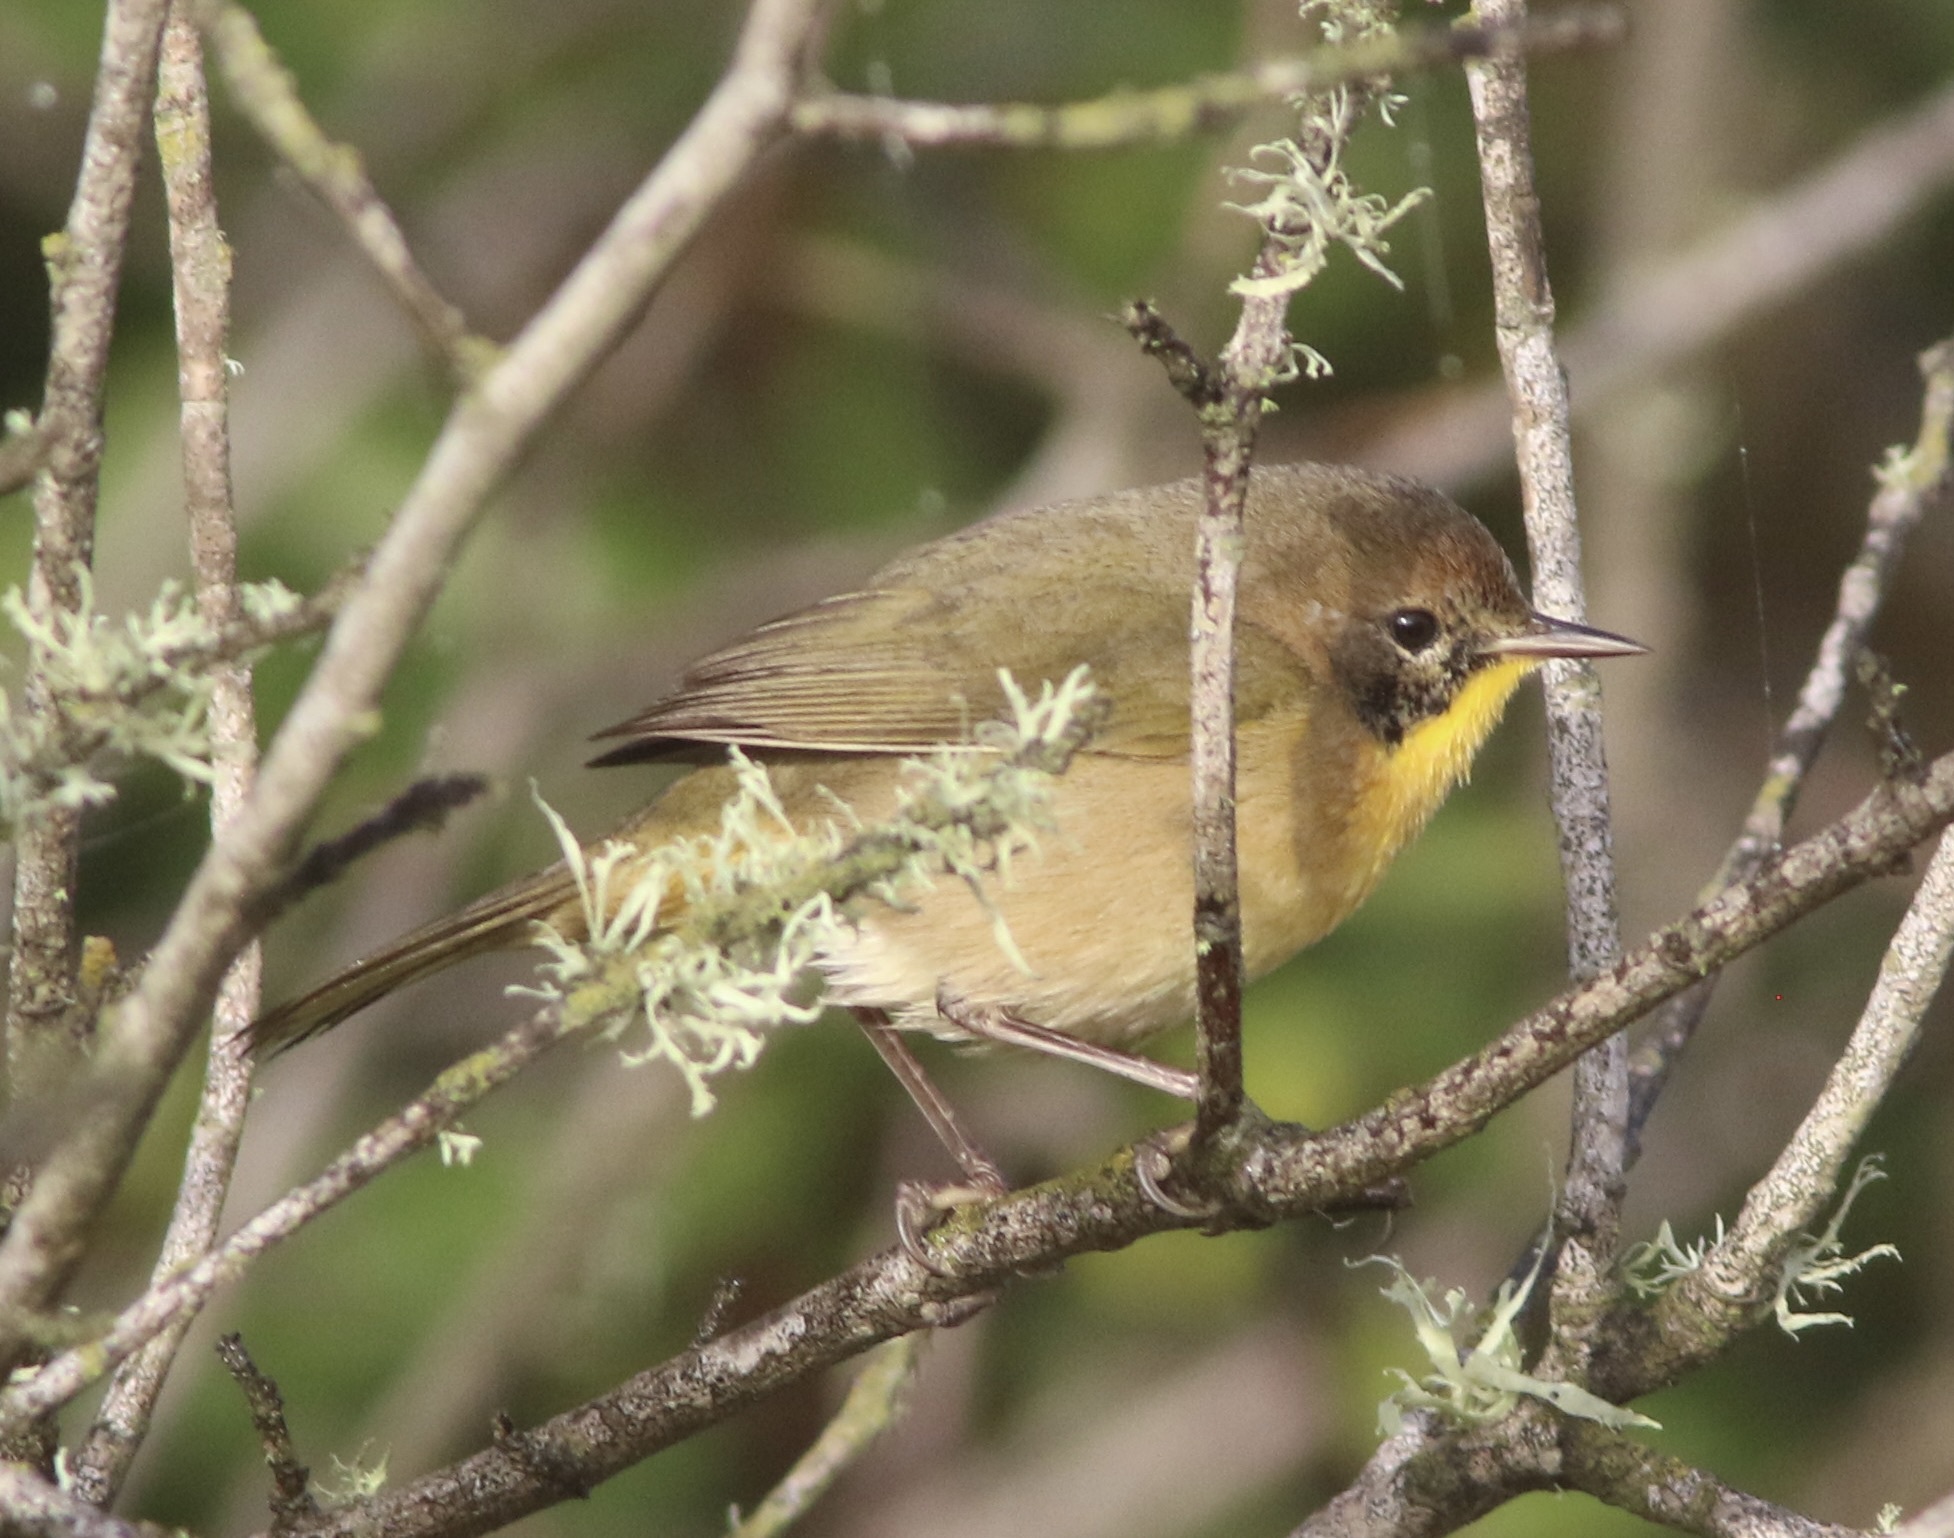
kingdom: Animalia
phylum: Chordata
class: Aves
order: Passeriformes
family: Parulidae
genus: Geothlypis
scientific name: Geothlypis trichas
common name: Common yellowthroat
